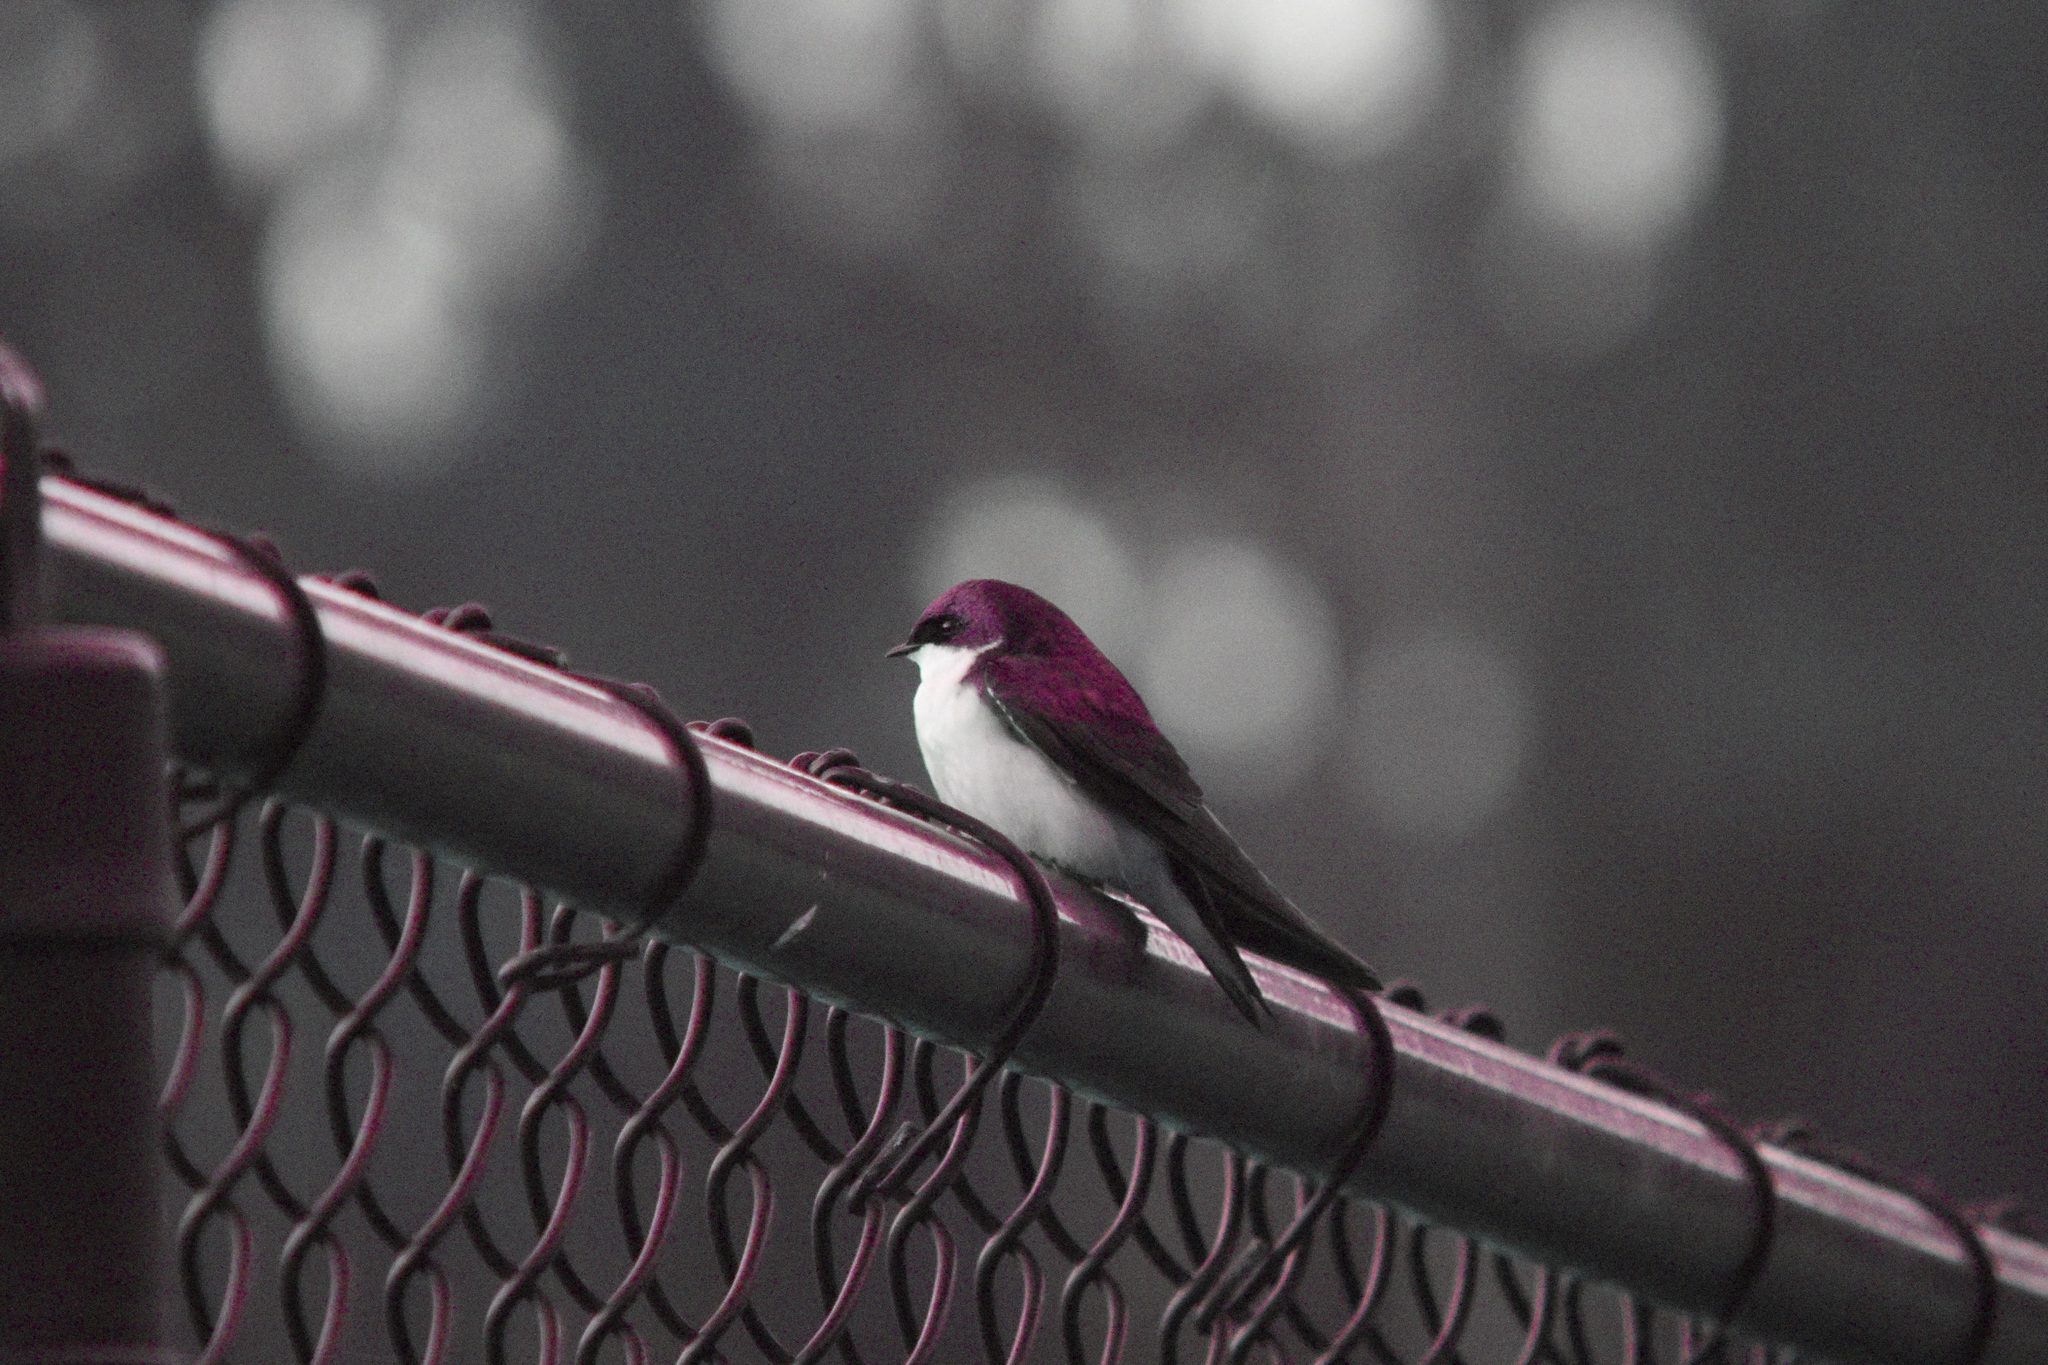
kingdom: Animalia
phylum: Chordata
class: Aves
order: Passeriformes
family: Hirundinidae
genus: Tachycineta
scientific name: Tachycineta bicolor
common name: Tree swallow
